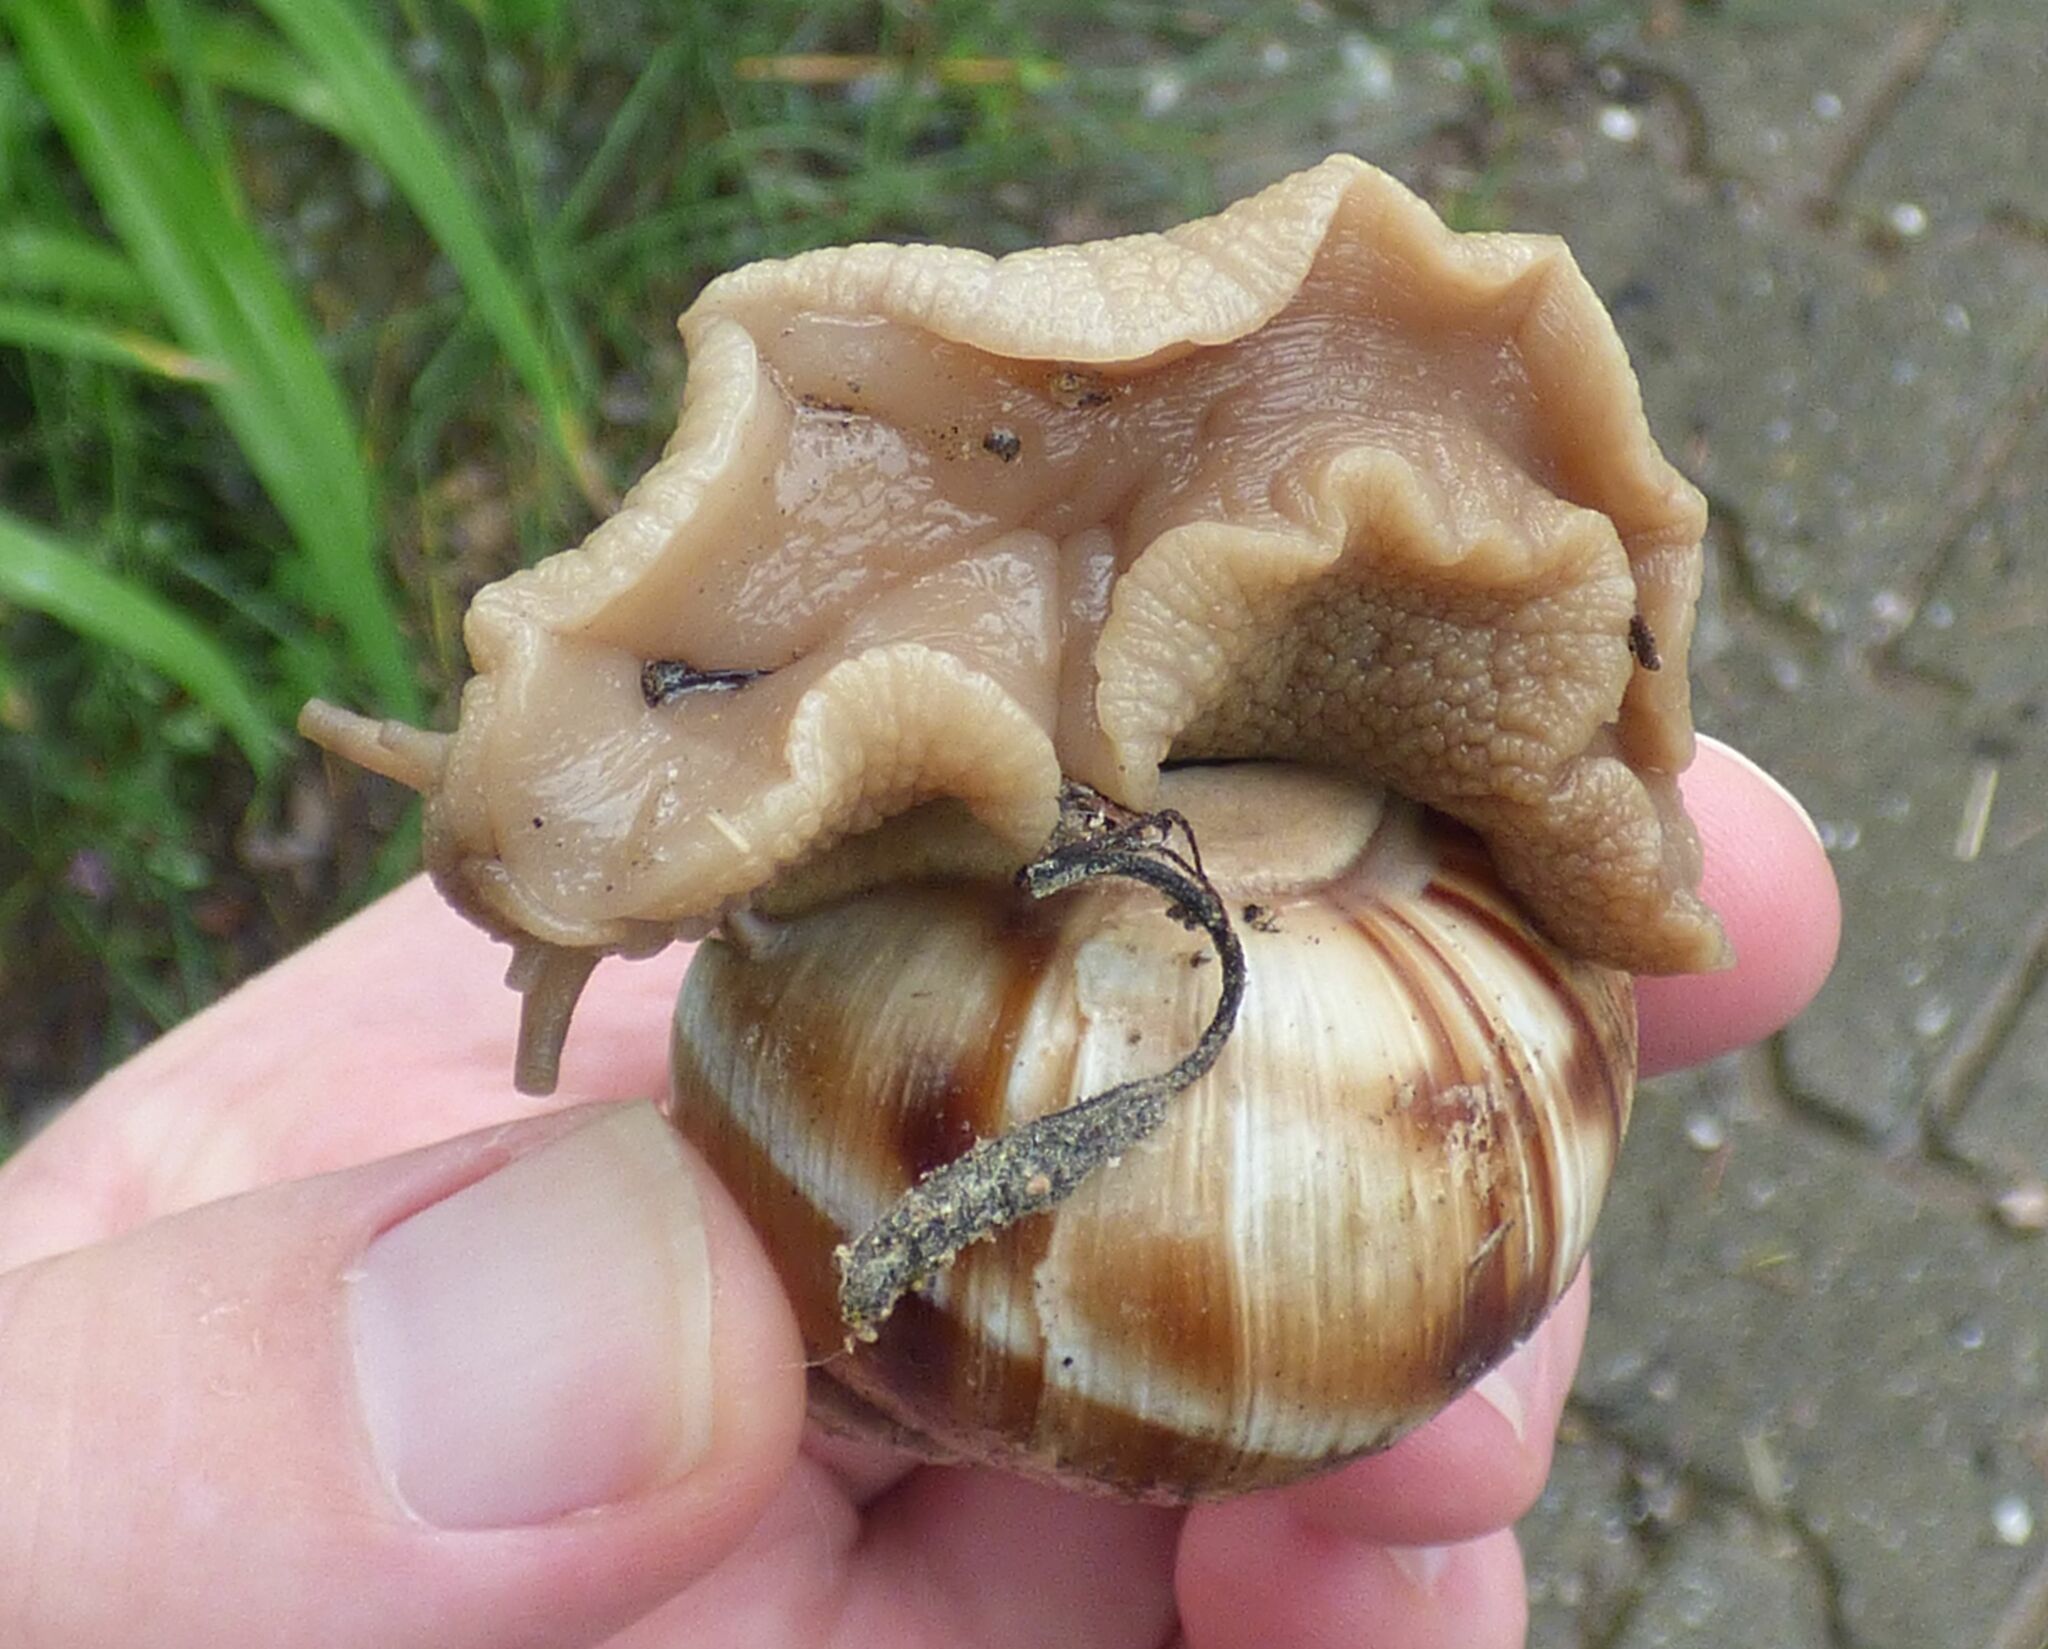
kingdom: Animalia
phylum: Mollusca
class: Gastropoda
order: Stylommatophora
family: Helicidae
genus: Helix
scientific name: Helix lucorum
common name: Turkish snail
